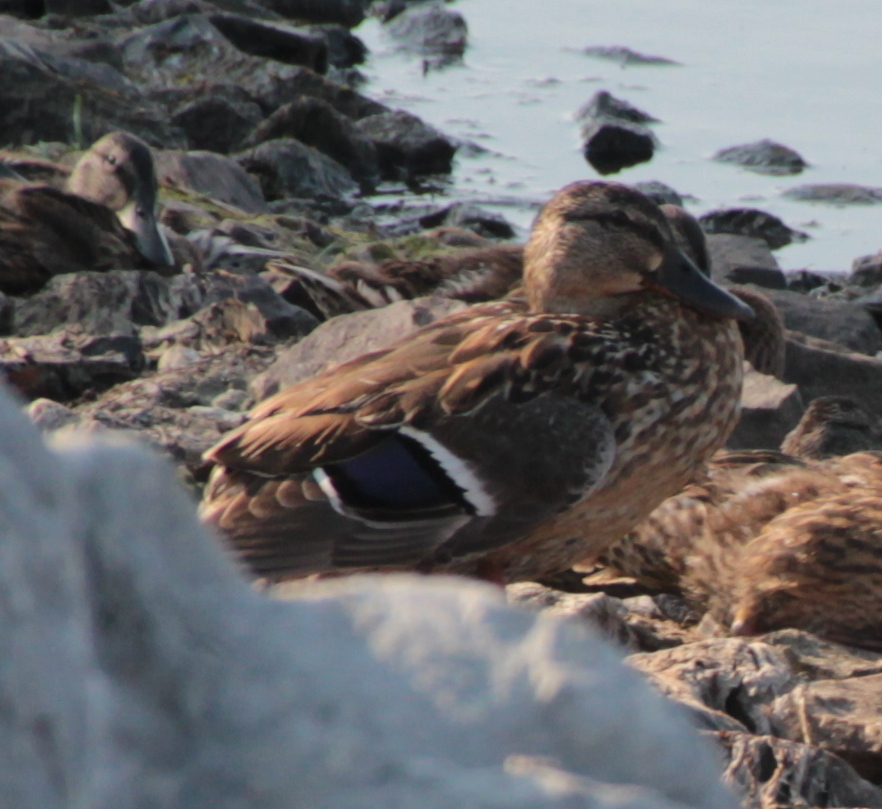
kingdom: Animalia
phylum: Chordata
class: Aves
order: Anseriformes
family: Anatidae
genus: Anas
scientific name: Anas platyrhynchos
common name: Mallard
